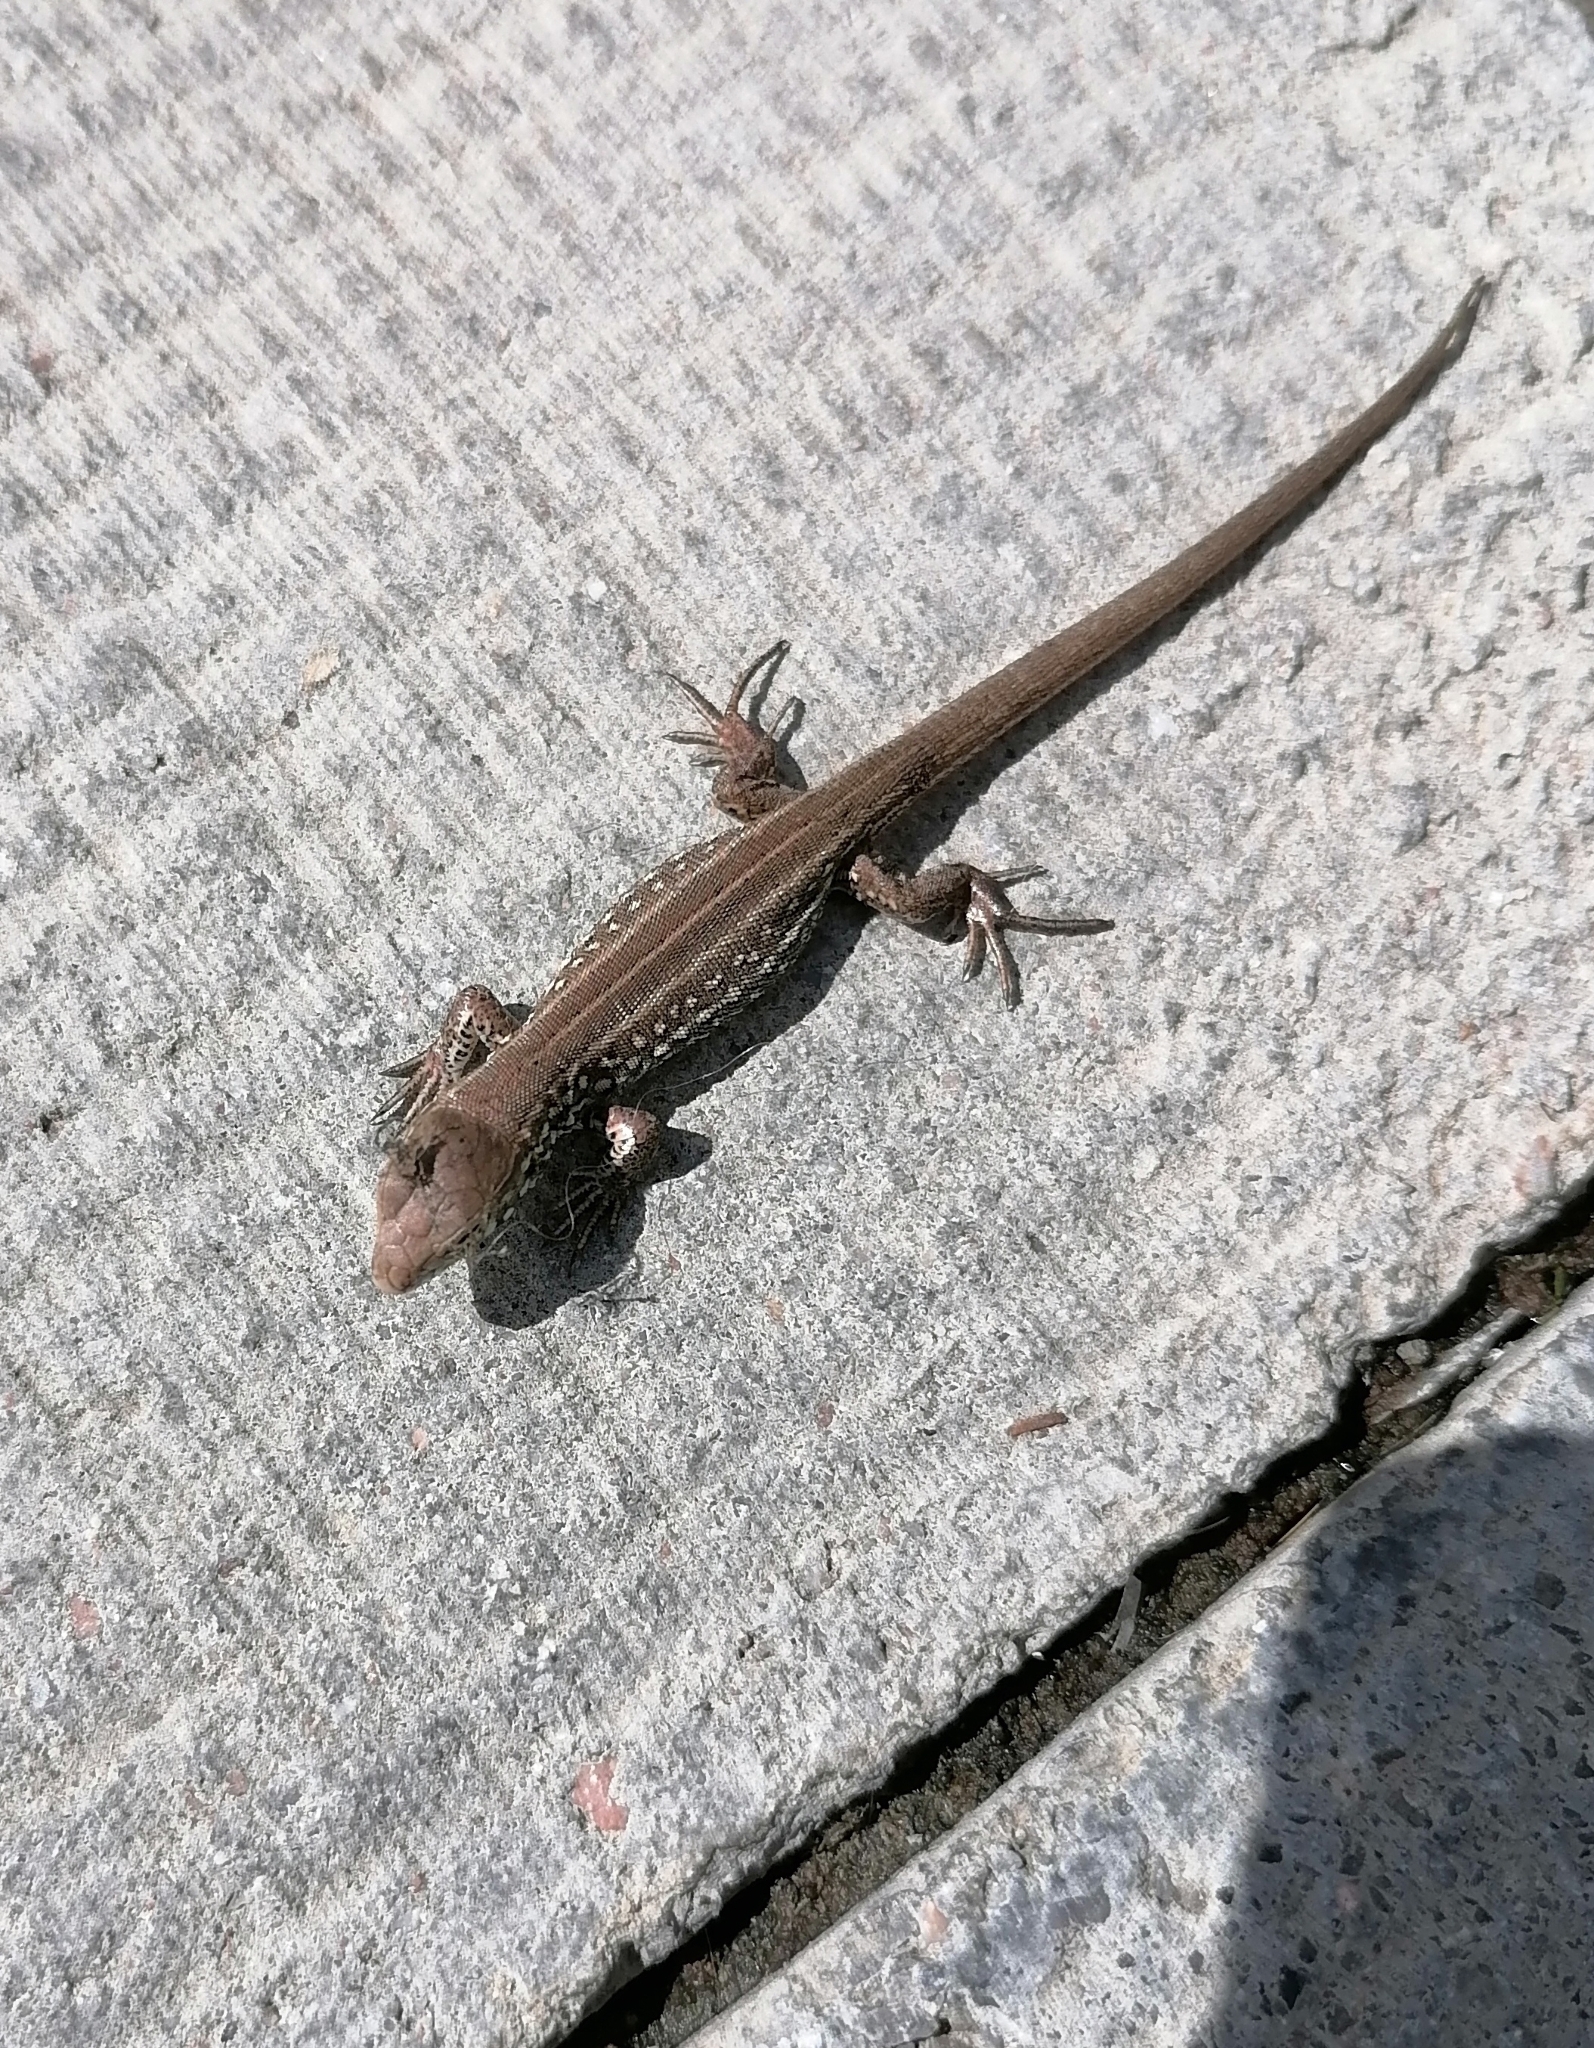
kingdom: Animalia
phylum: Chordata
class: Squamata
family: Lacertidae
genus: Lacerta
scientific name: Lacerta agilis
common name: Sand lizard
